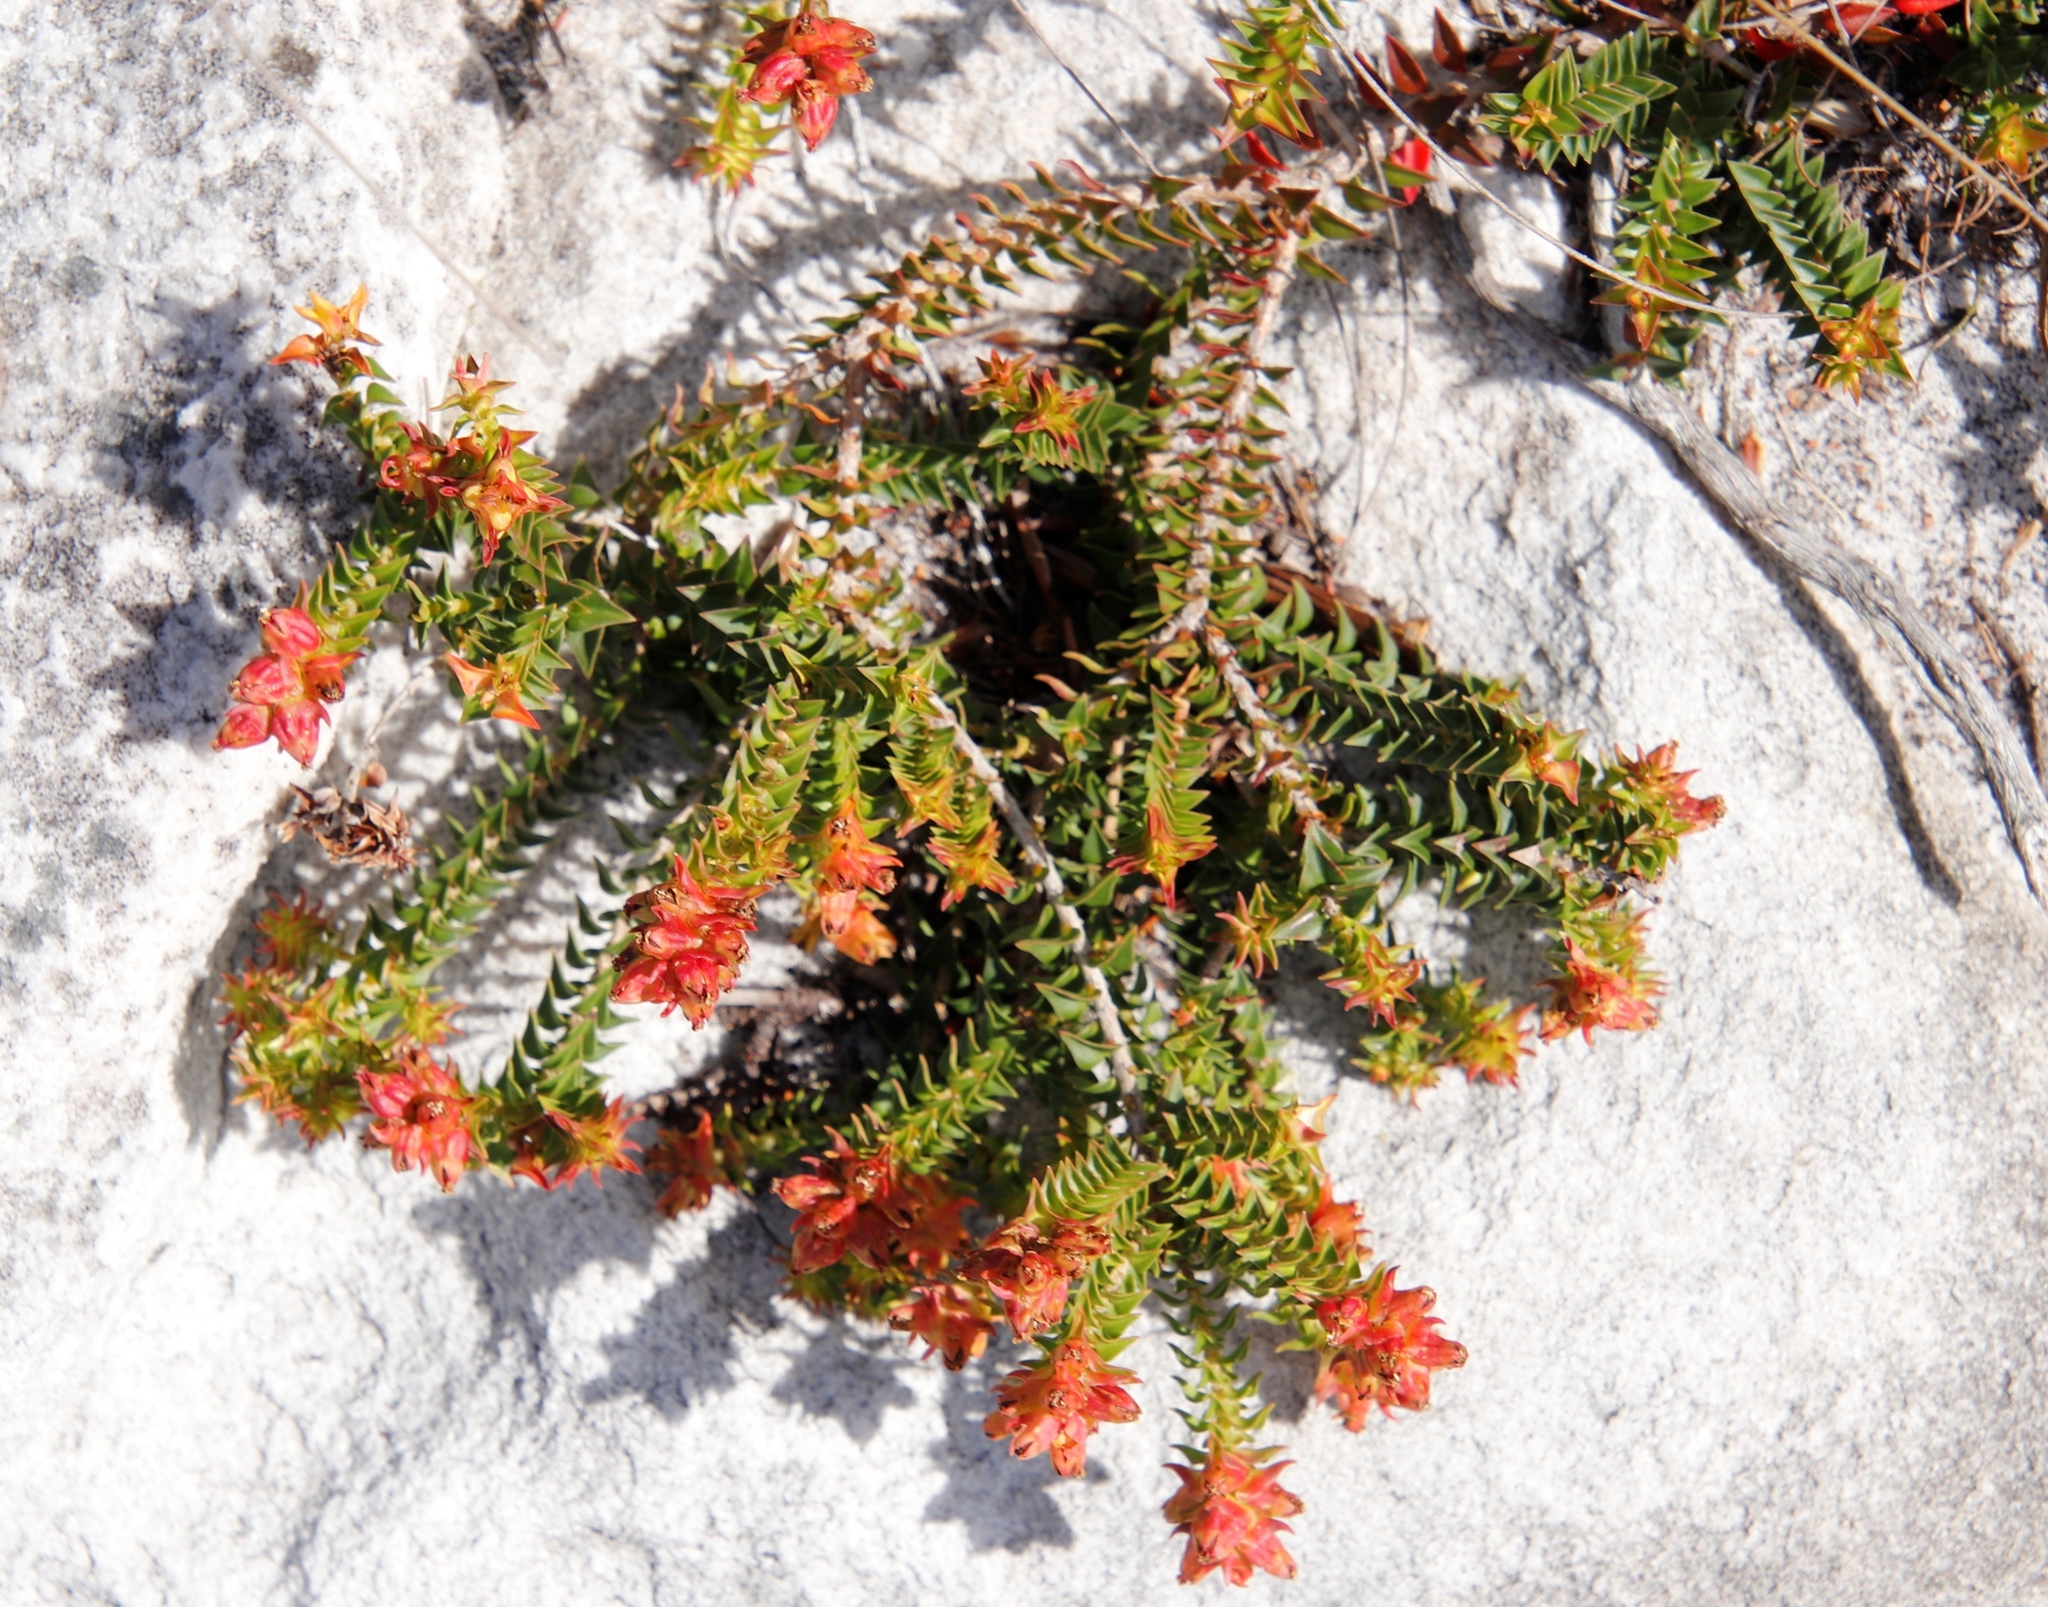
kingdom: Plantae
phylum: Tracheophyta
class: Magnoliopsida
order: Myrtales
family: Penaeaceae
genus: Penaea
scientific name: Penaea mucronata
